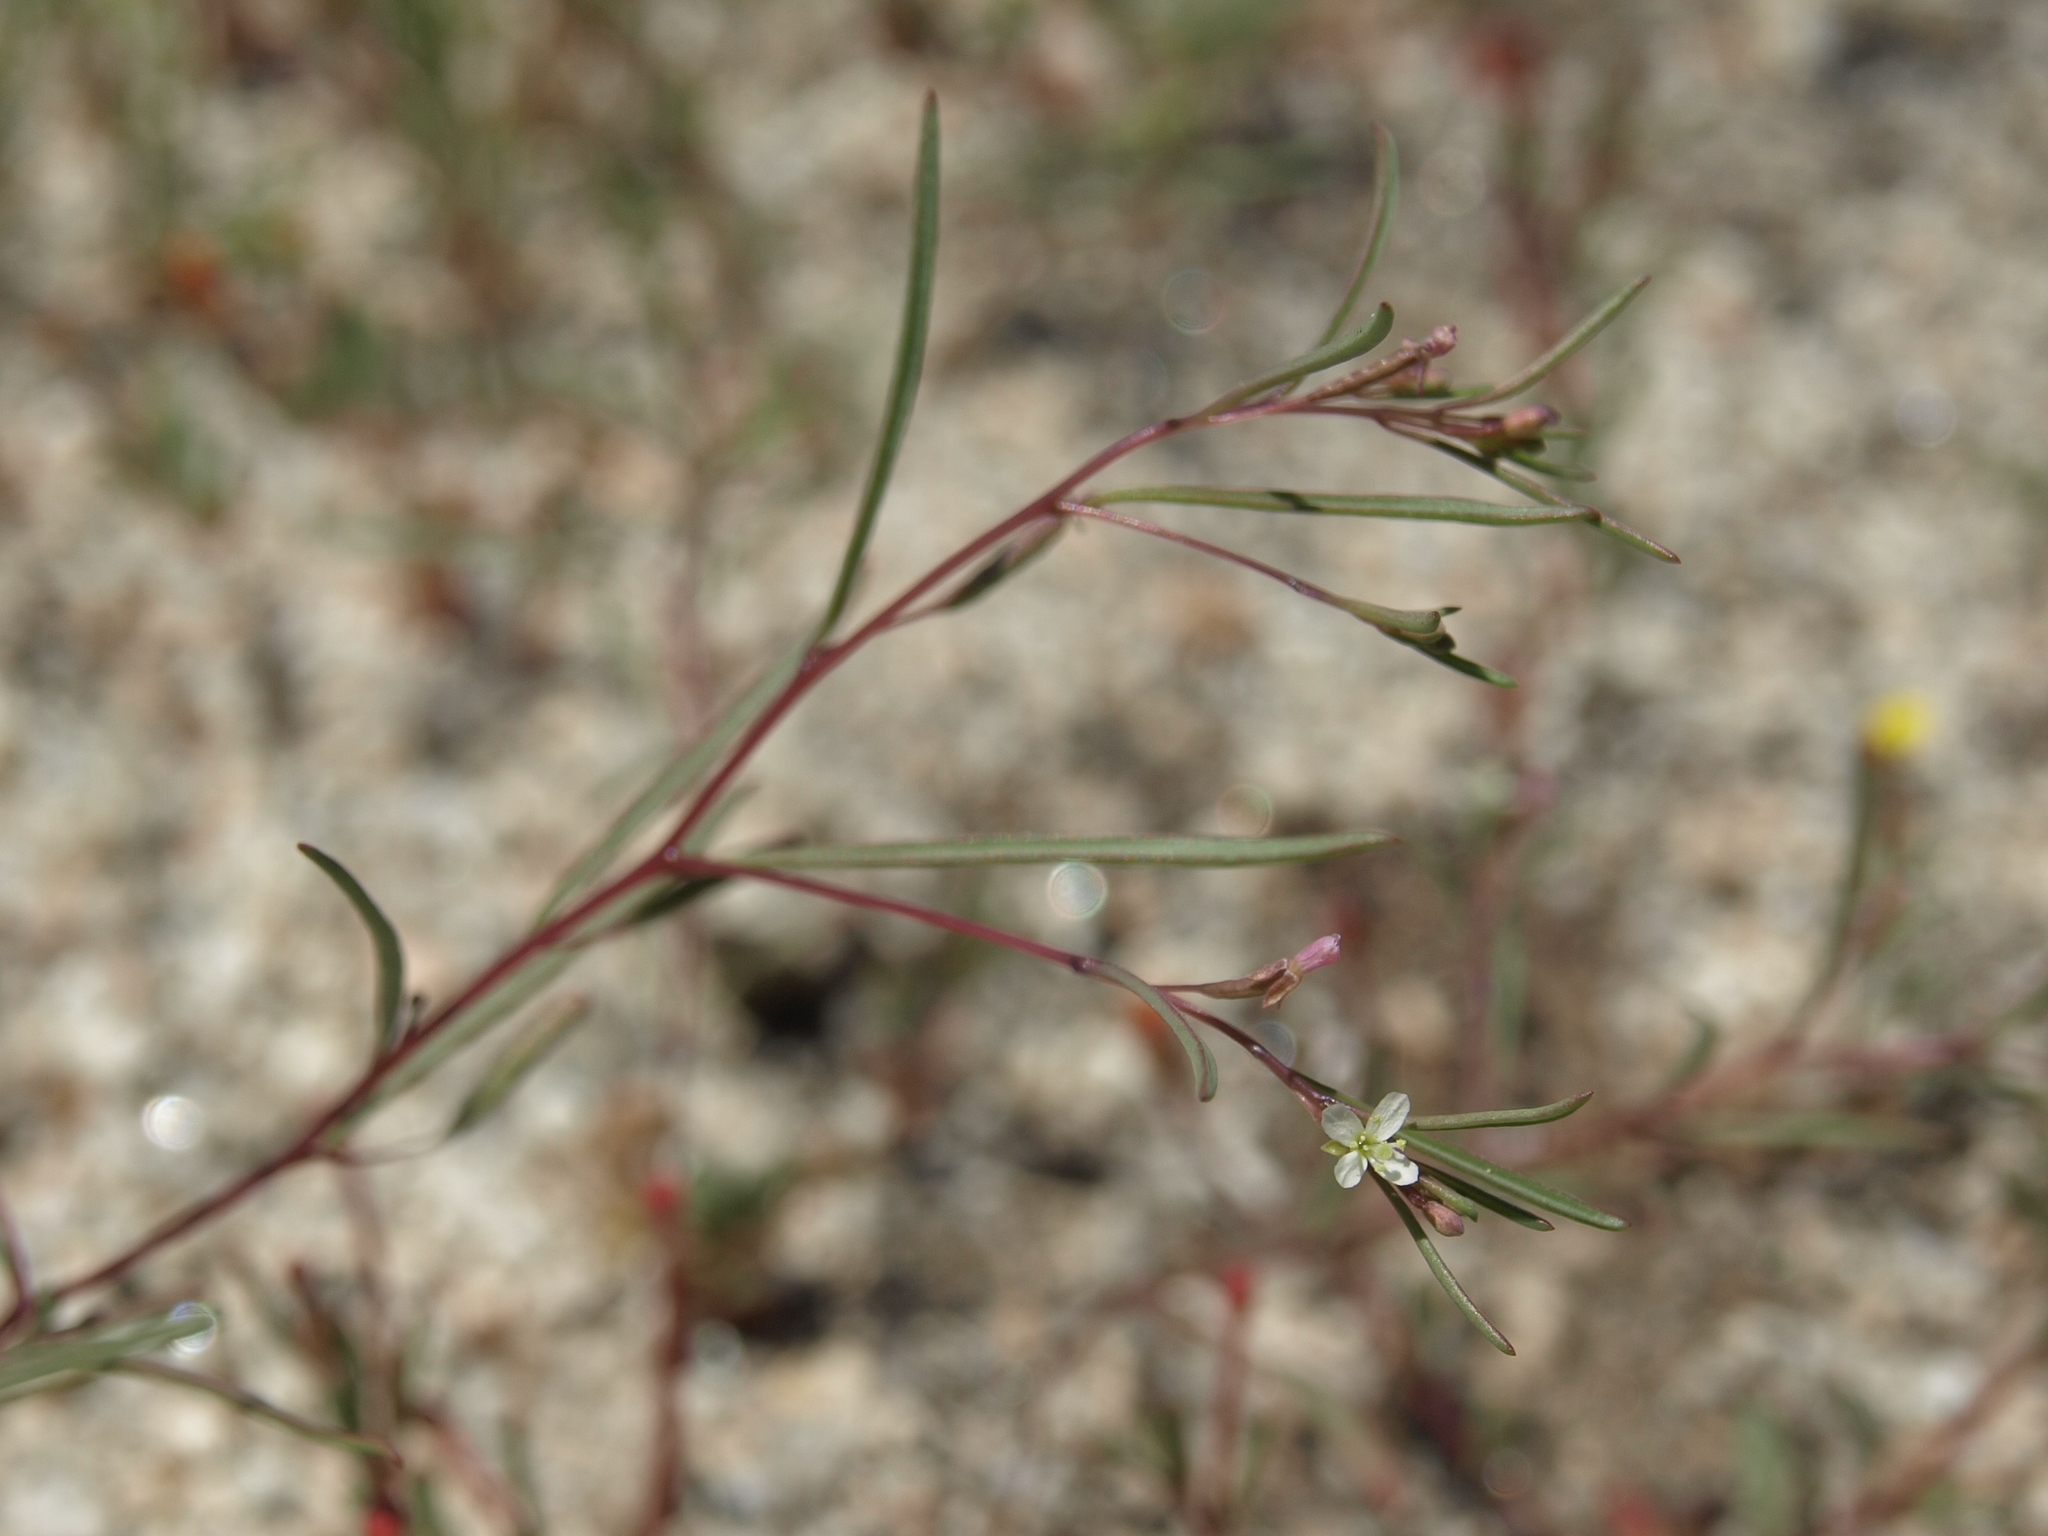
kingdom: Plantae
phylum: Tracheophyta
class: Magnoliopsida
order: Myrtales
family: Onagraceae
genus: Gayophytum
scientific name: Gayophytum diffusum
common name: Big-flowered groundsmoke
